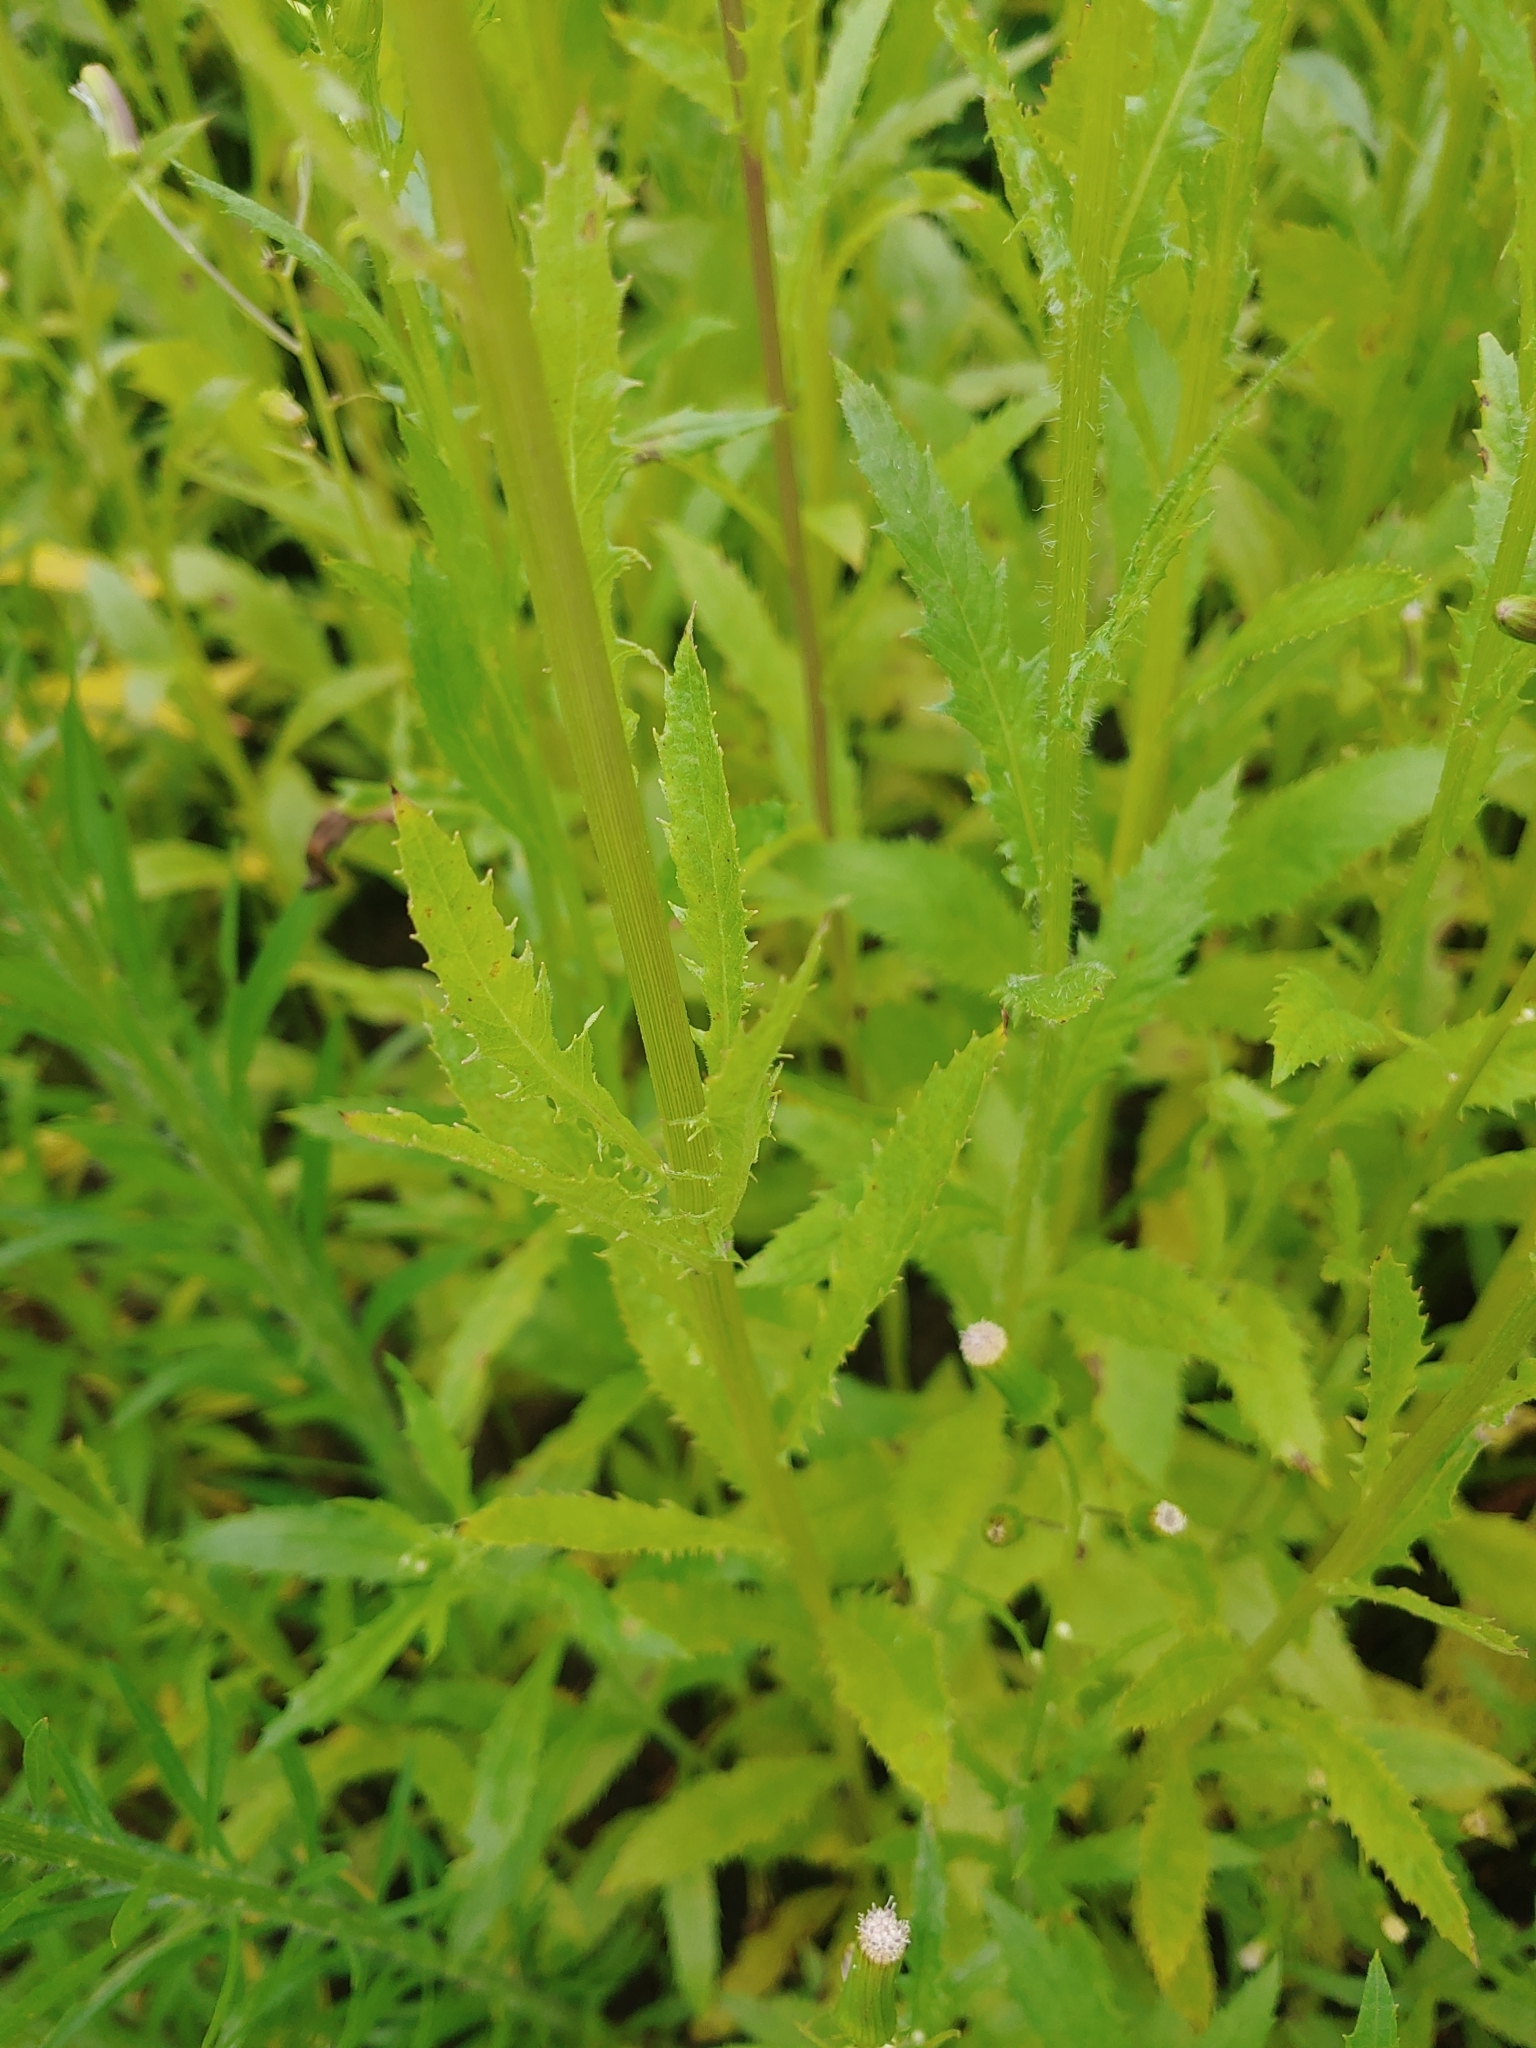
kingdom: Plantae
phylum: Tracheophyta
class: Magnoliopsida
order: Asterales
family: Asteraceae
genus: Erechtites
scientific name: Erechtites hieraciifolius
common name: American burnweed
